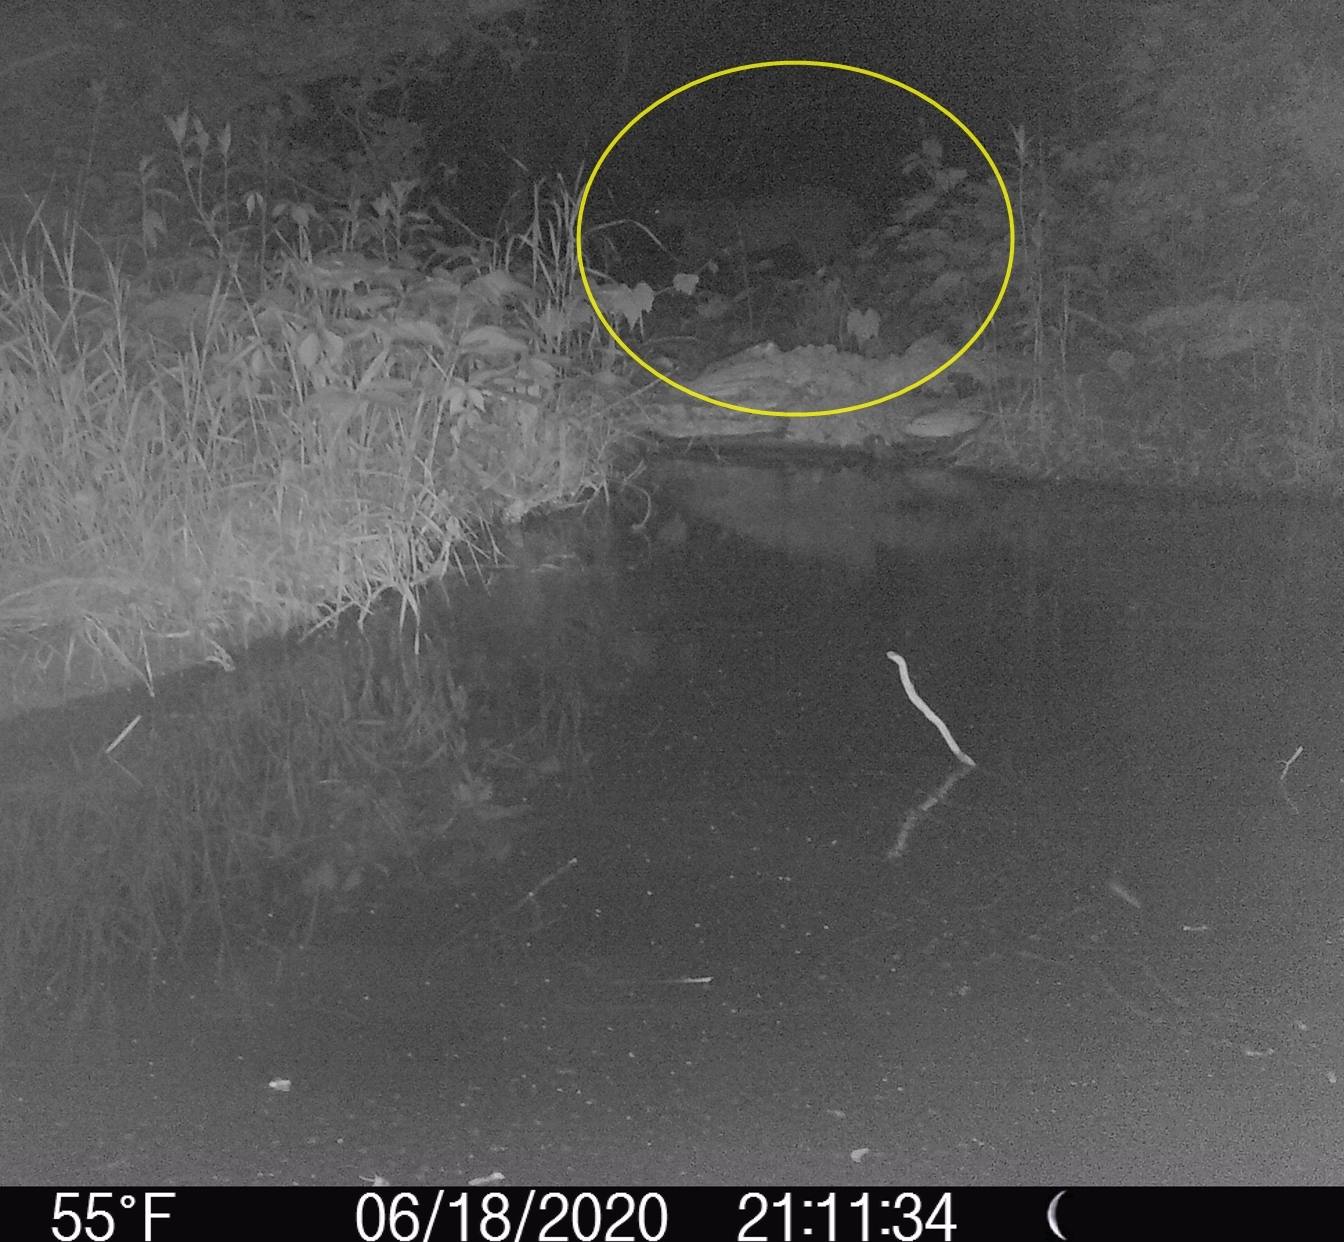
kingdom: Animalia
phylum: Chordata
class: Mammalia
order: Carnivora
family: Felidae
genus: Puma
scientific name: Puma concolor
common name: Puma
